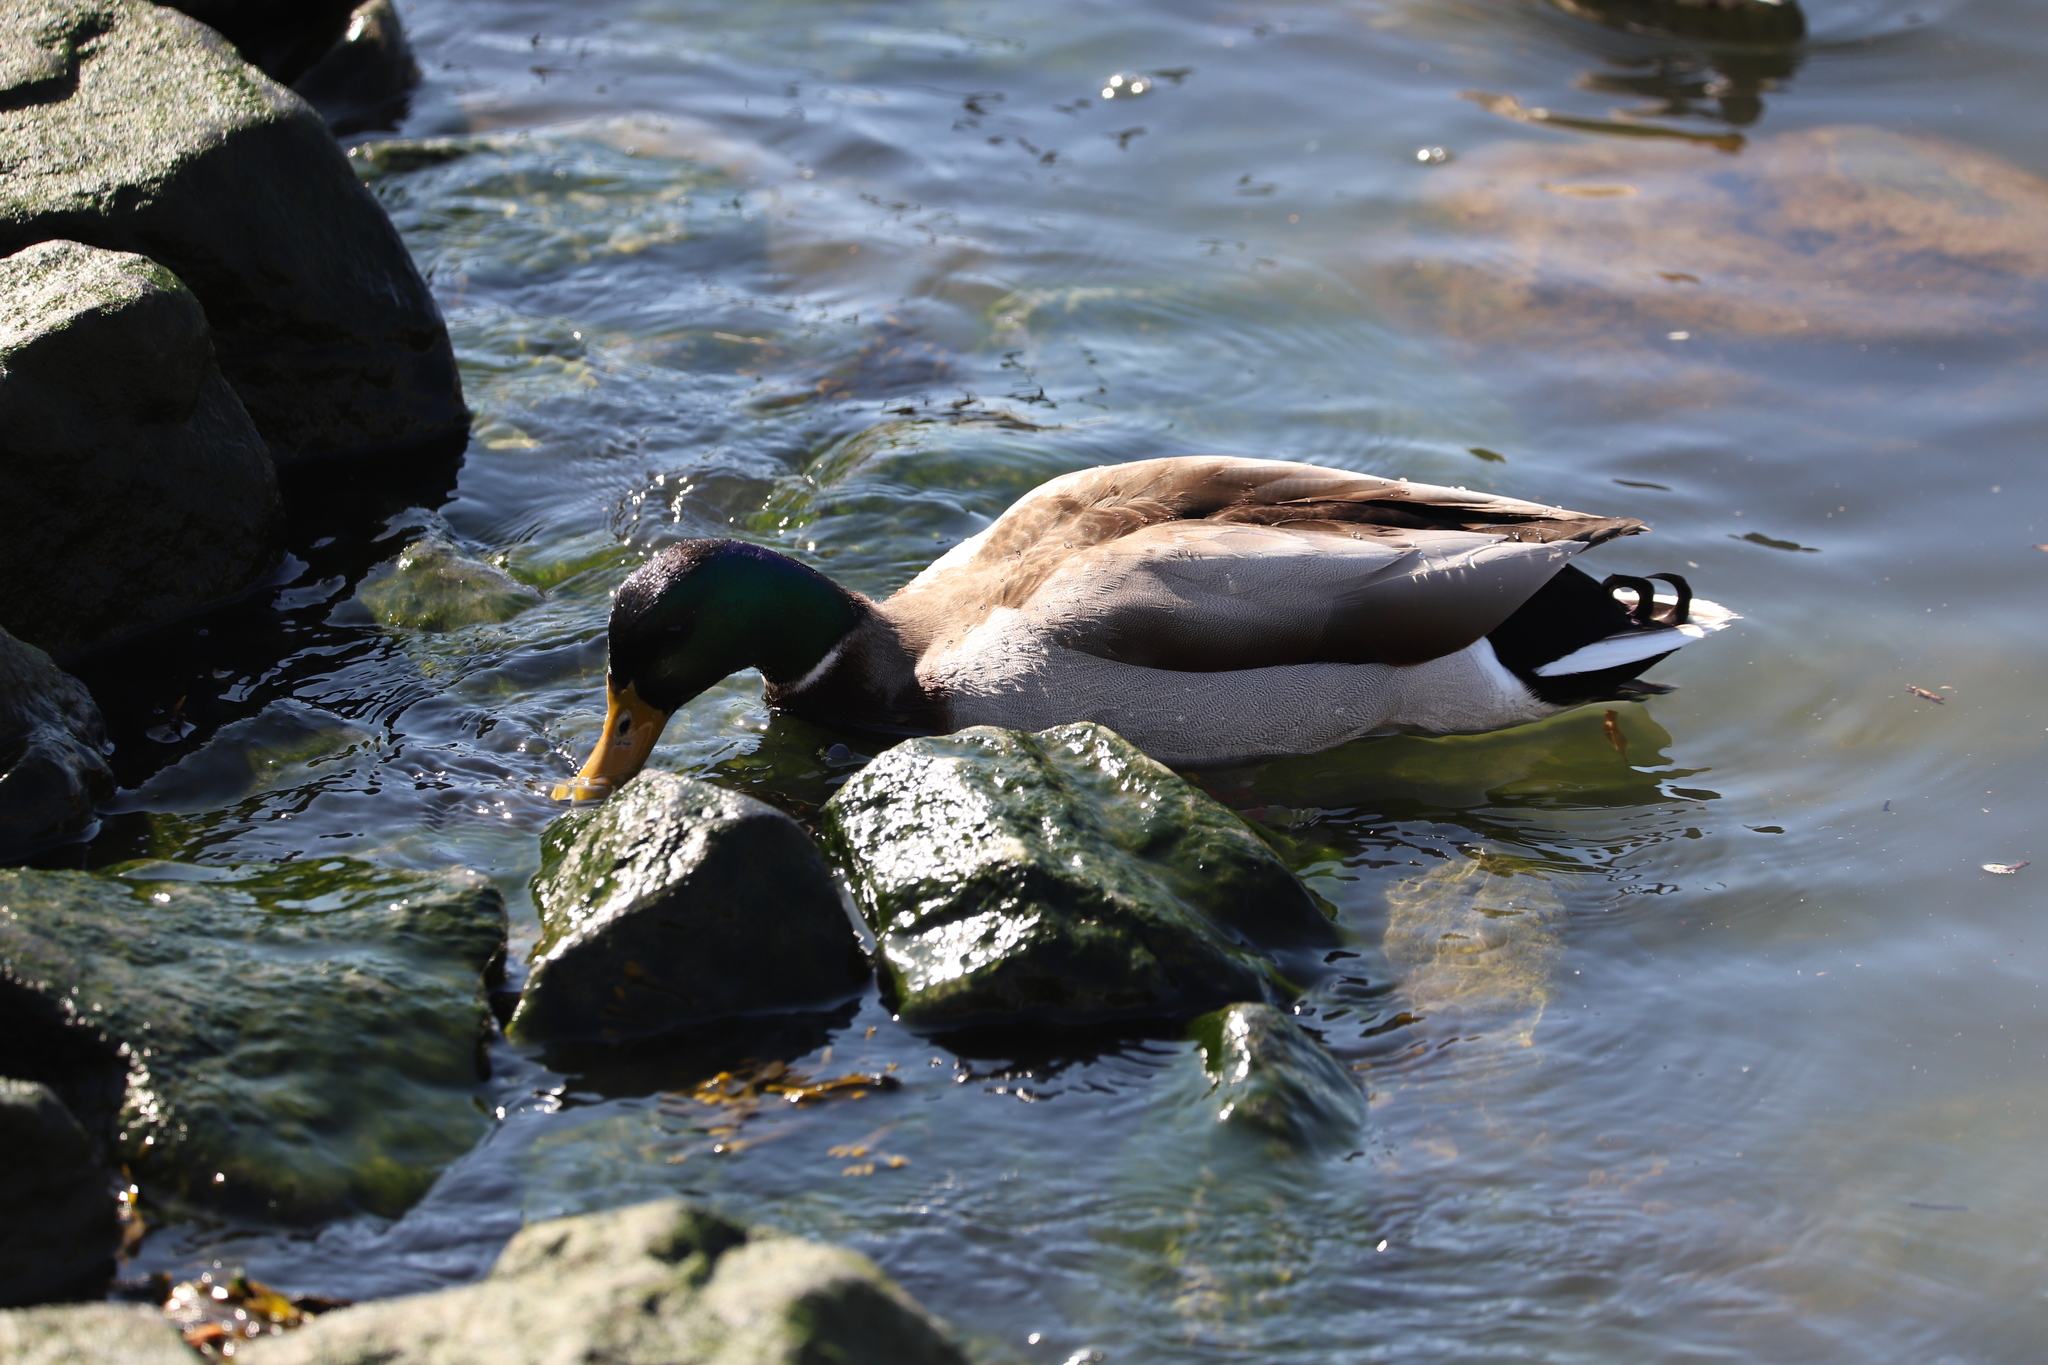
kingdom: Animalia
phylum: Chordata
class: Aves
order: Anseriformes
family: Anatidae
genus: Anas
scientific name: Anas platyrhynchos
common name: Mallard
